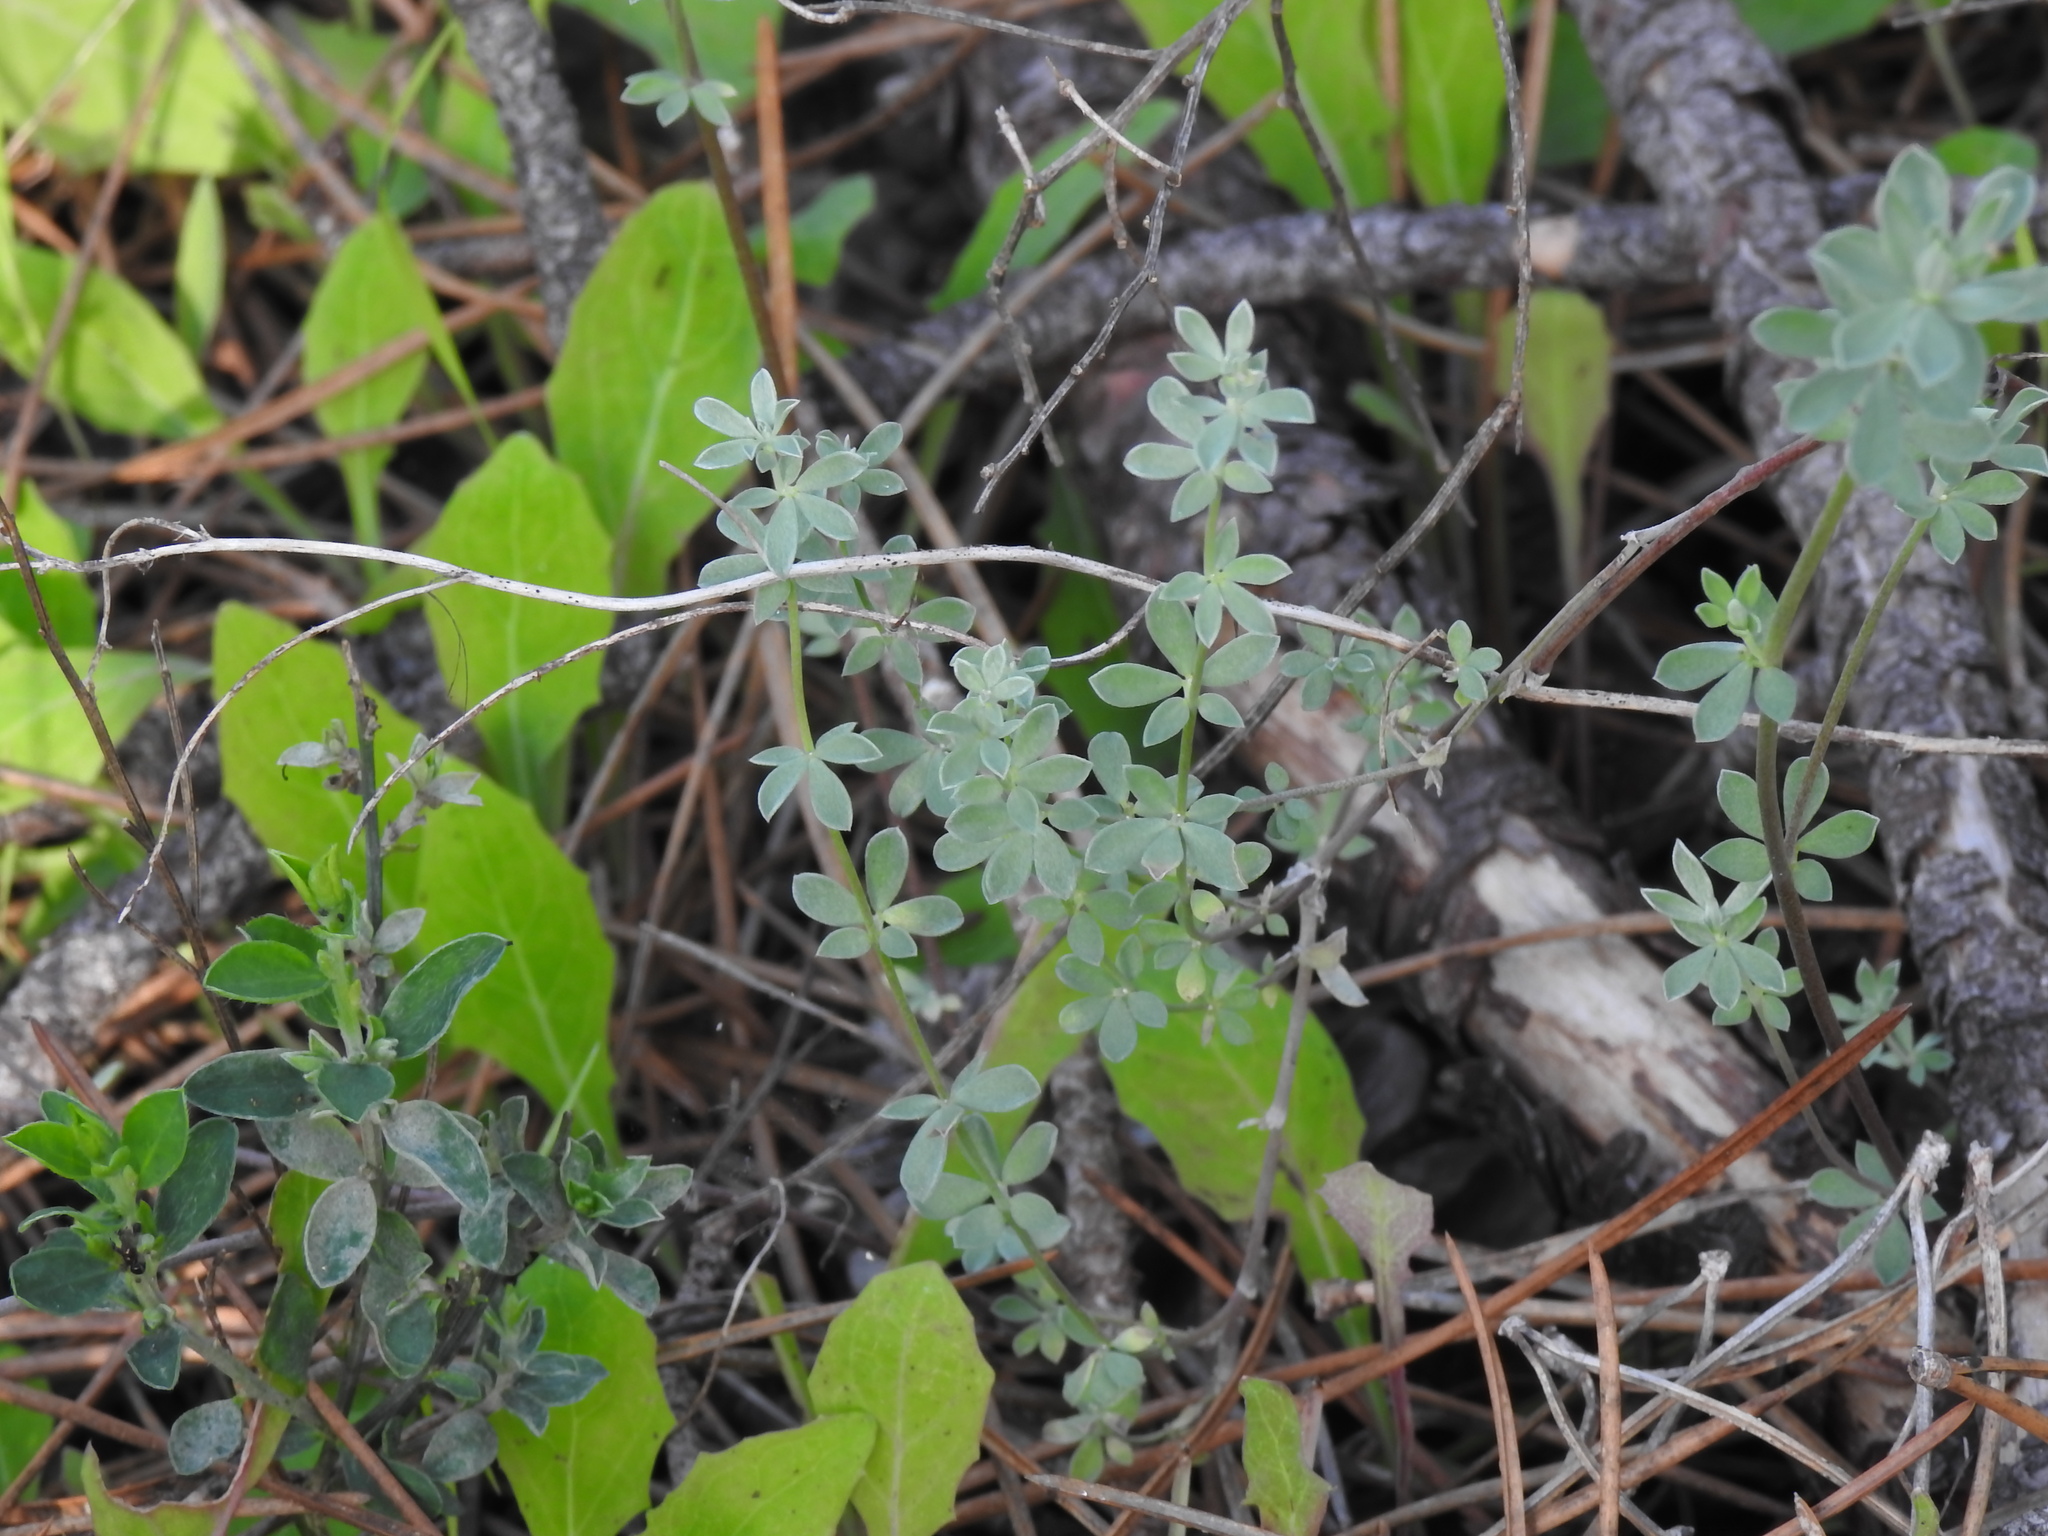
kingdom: Plantae
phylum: Tracheophyta
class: Magnoliopsida
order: Fabales
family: Fabaceae
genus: Lotus
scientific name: Lotus creticus
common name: Cretan bird's-foot trefoil
